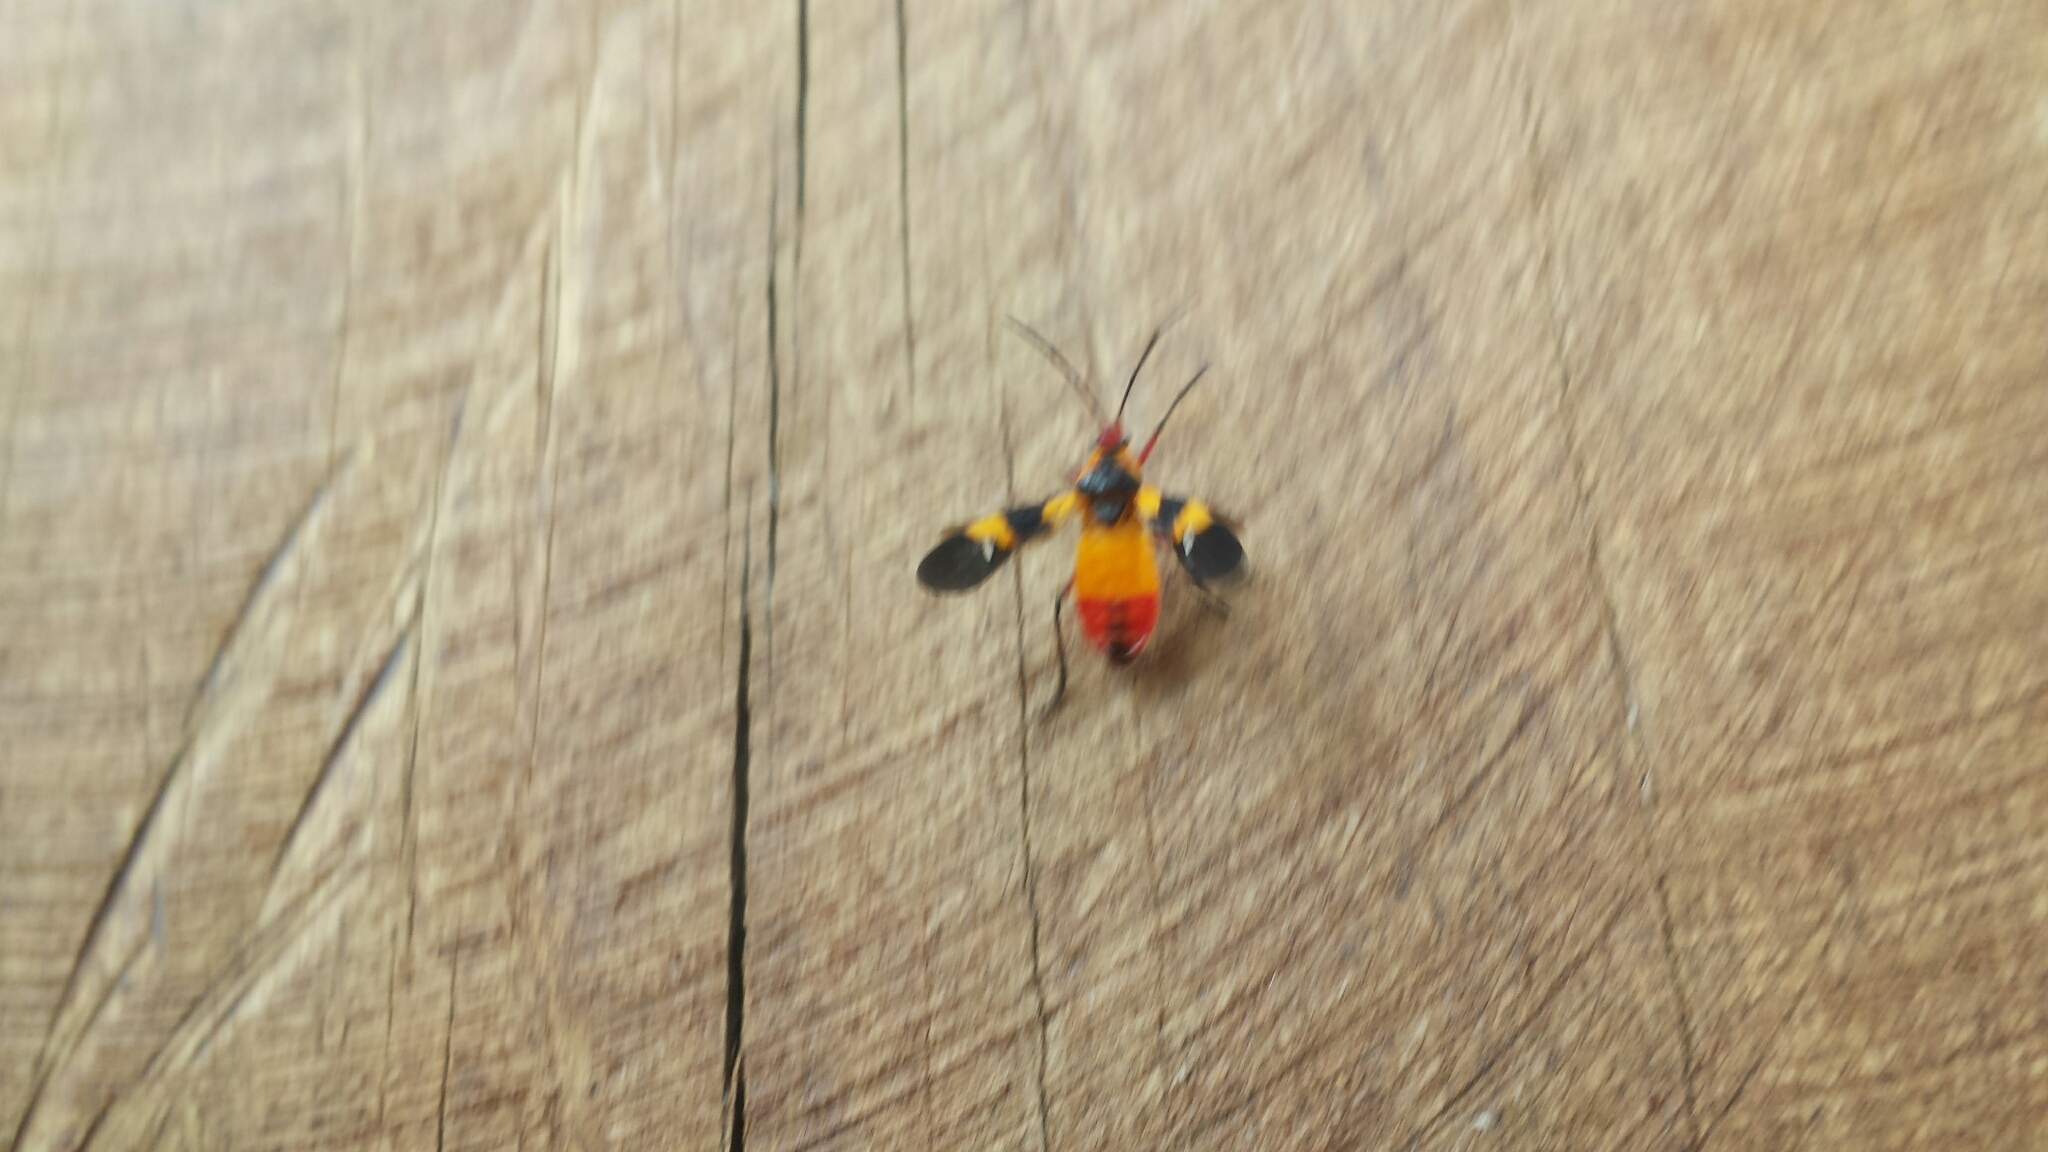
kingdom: Animalia
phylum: Arthropoda
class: Insecta
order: Hemiptera
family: Lygaeidae
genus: Oncopeltus
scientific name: Oncopeltus sexmaculatus
